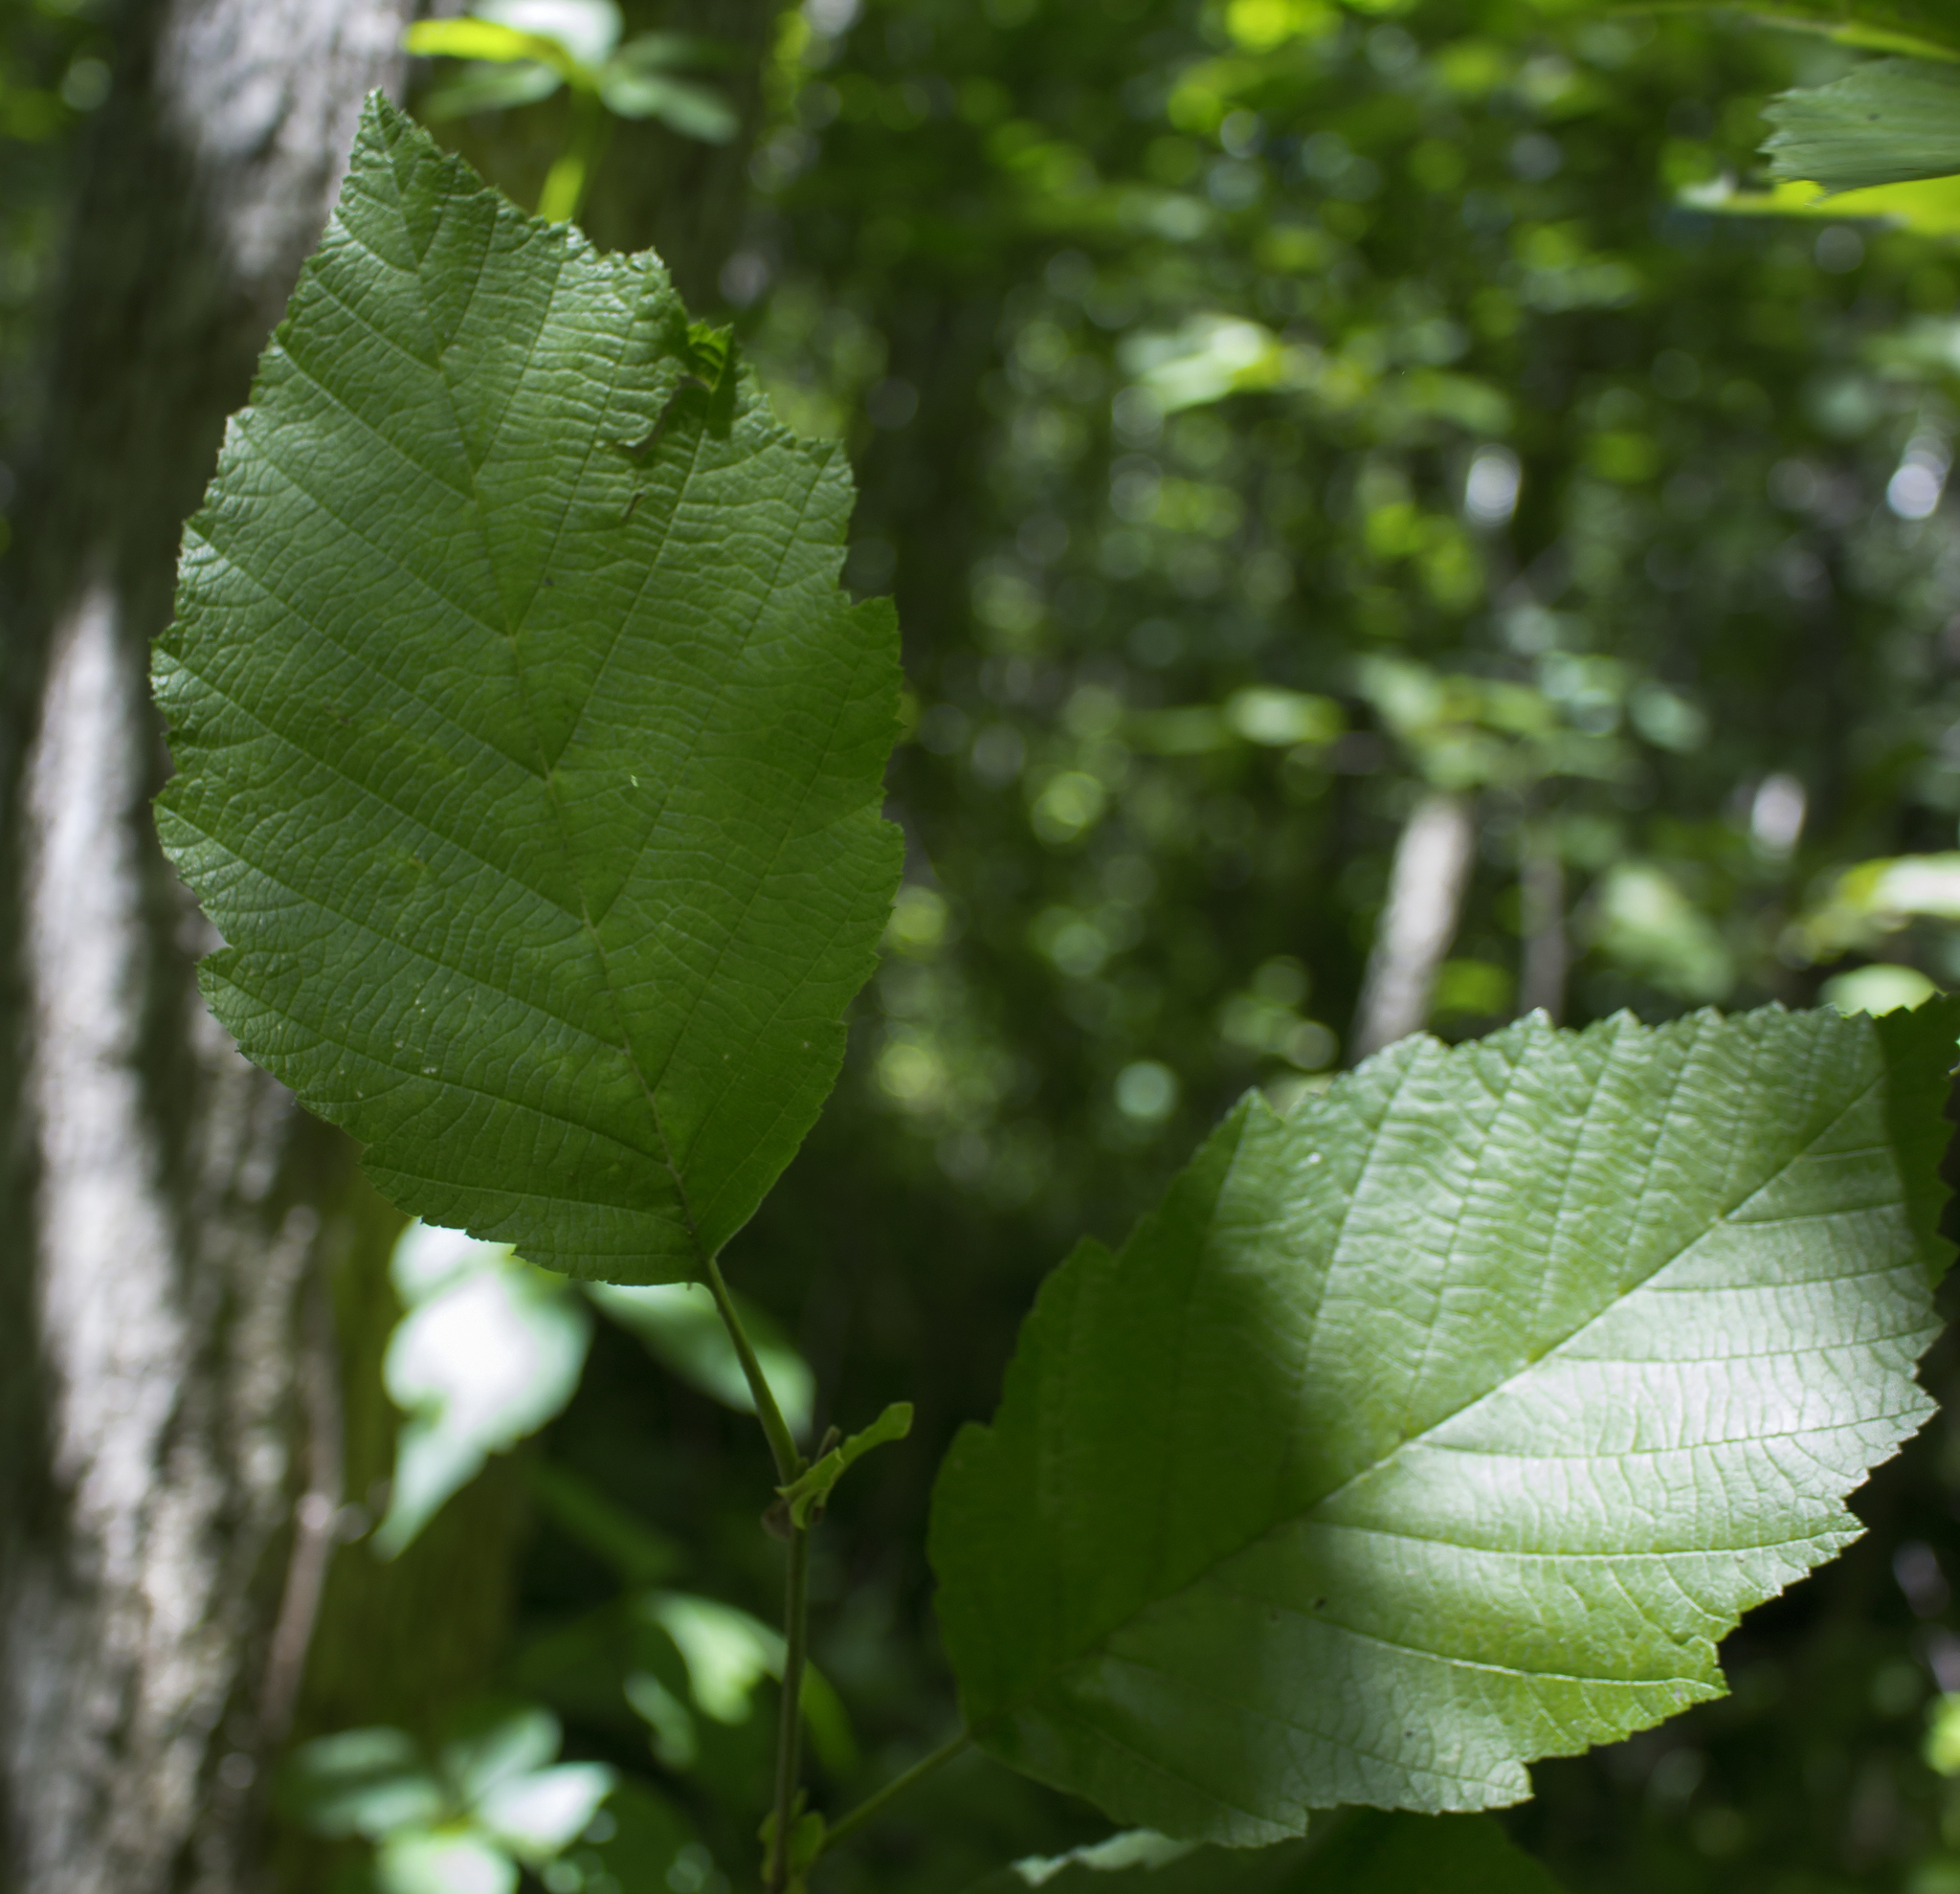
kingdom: Plantae
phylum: Tracheophyta
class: Magnoliopsida
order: Fagales
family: Betulaceae
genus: Alnus
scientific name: Alnus incana
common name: Grey alder
